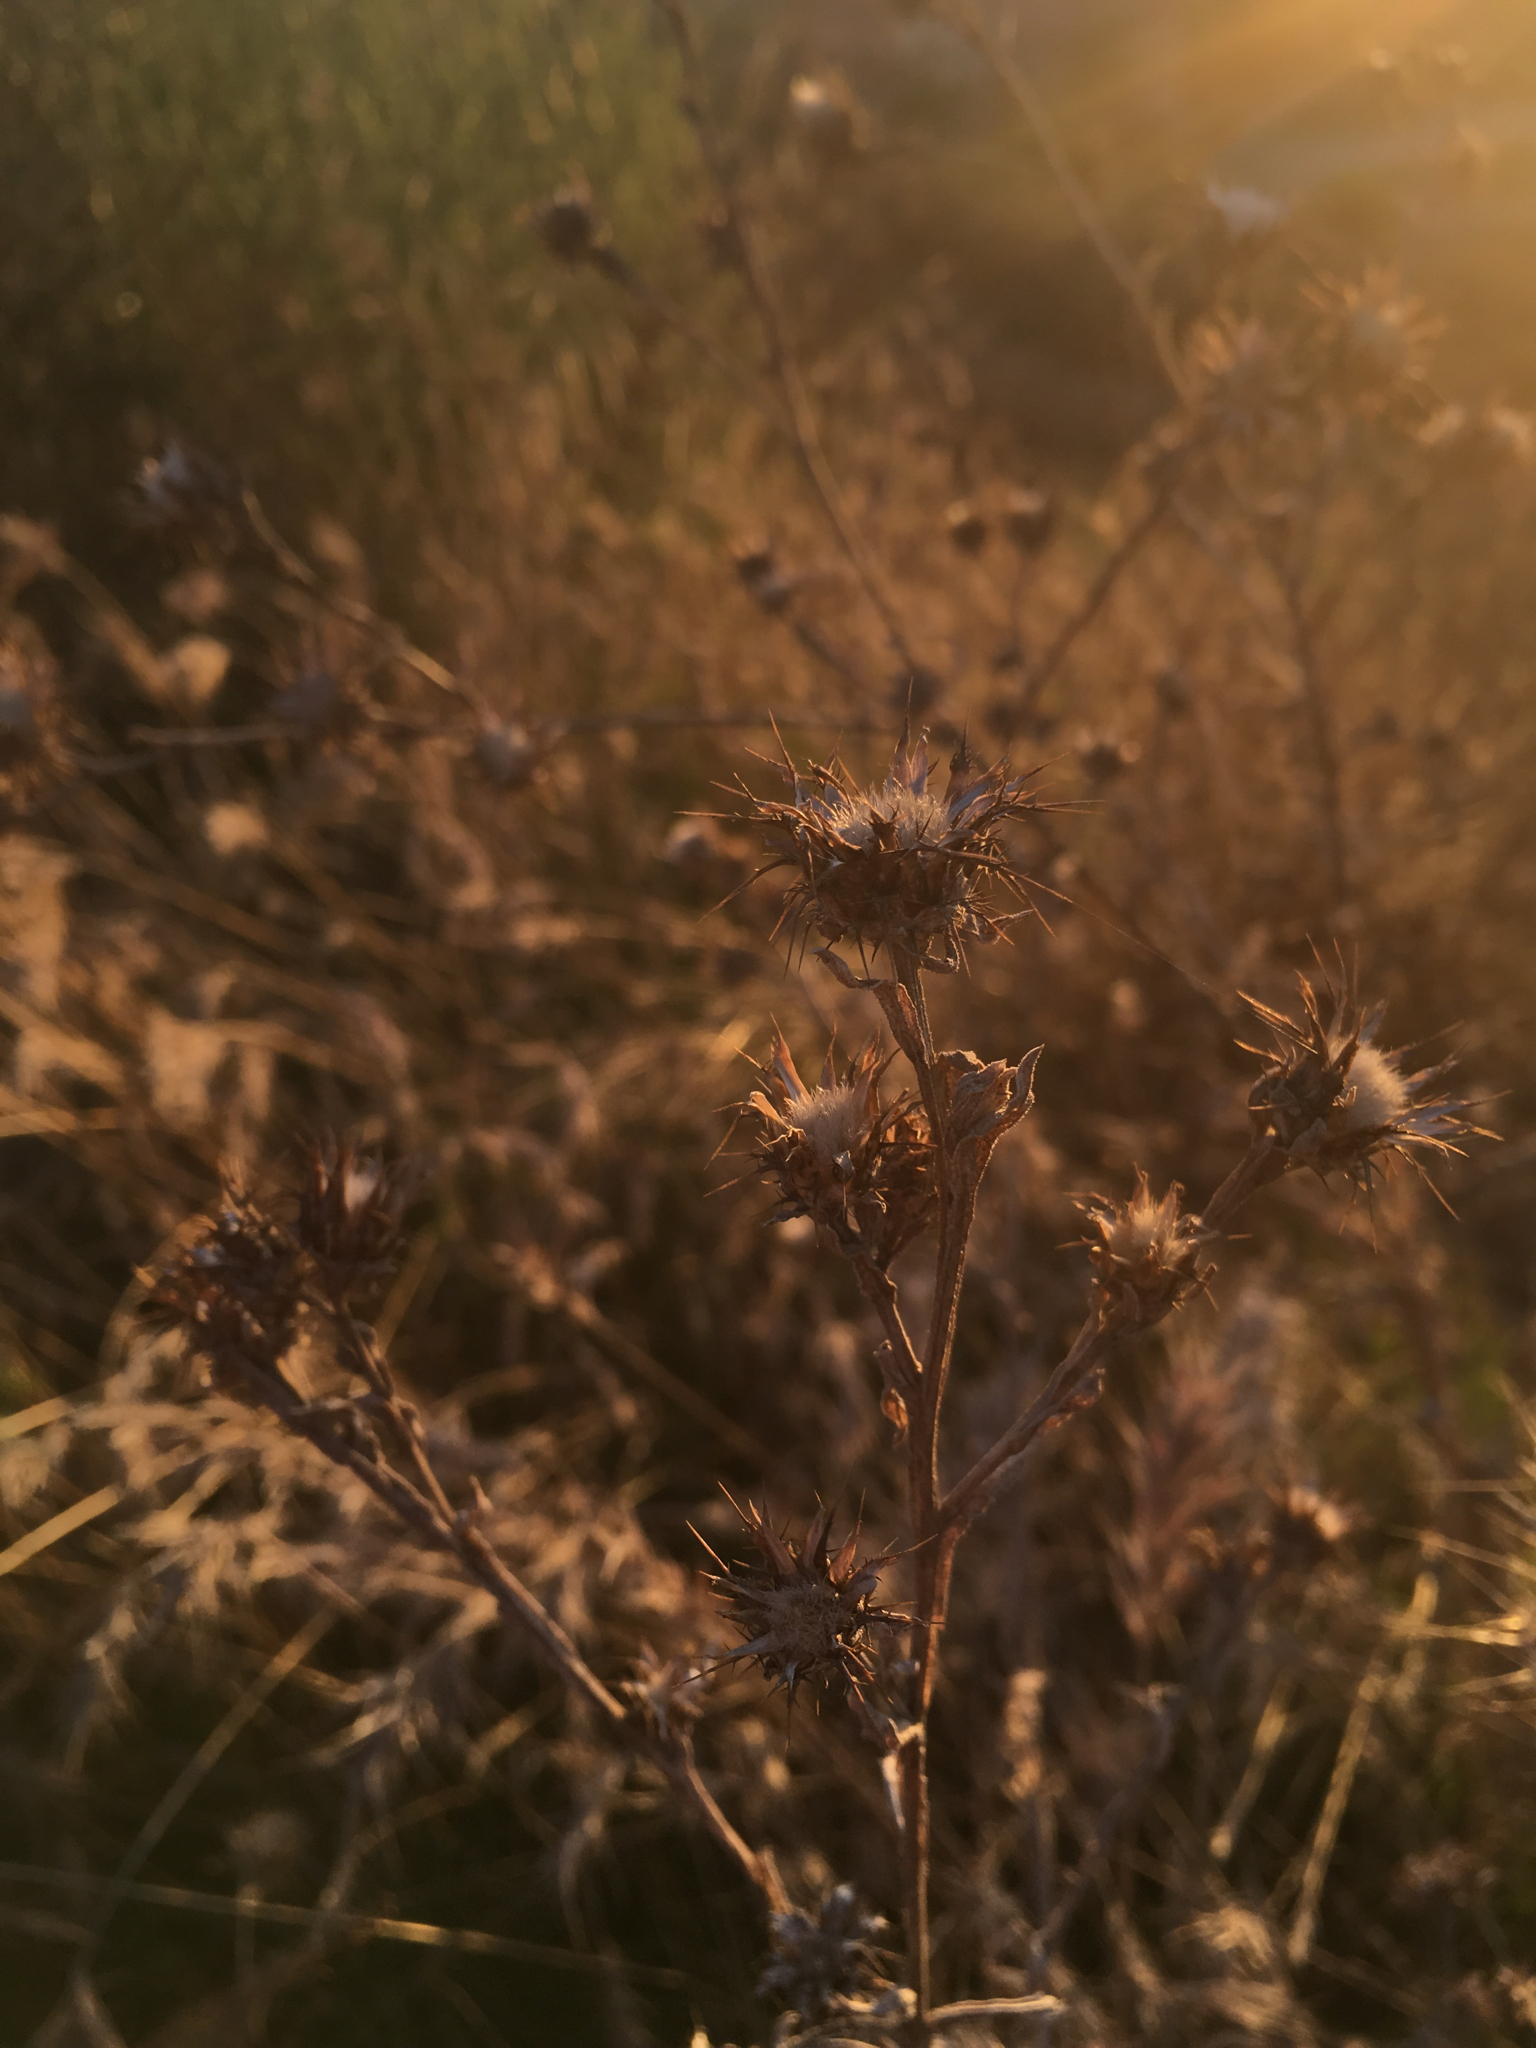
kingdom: Plantae
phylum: Tracheophyta
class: Magnoliopsida
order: Asterales
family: Asteraceae
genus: Centaurea
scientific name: Centaurea melitensis
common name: Maltese star-thistle
